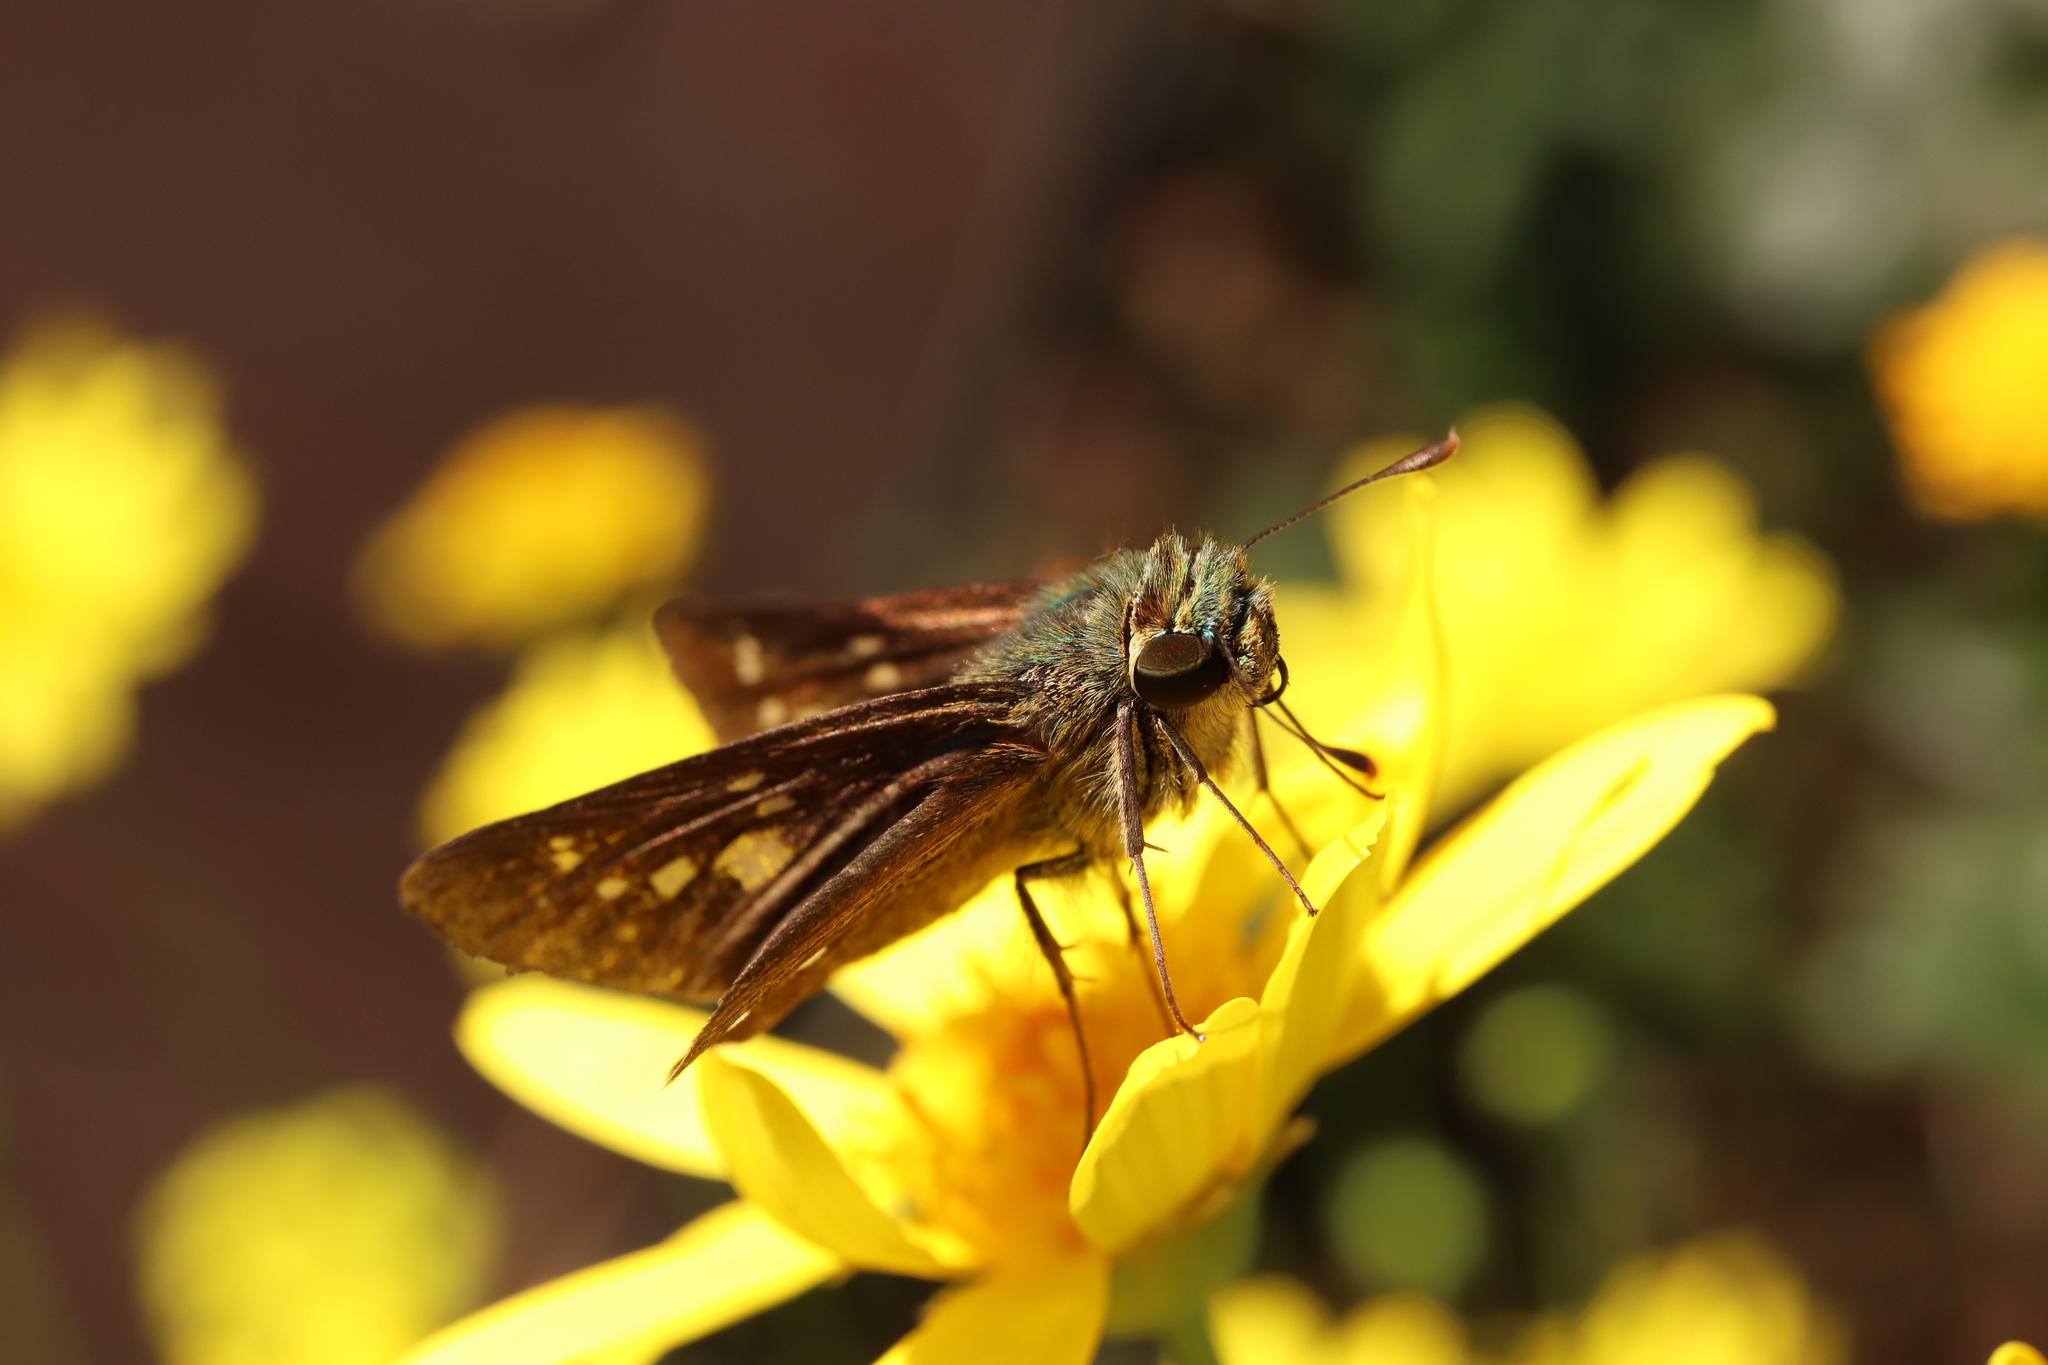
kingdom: Animalia
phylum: Arthropoda
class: Insecta
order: Lepidoptera
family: Hesperiidae
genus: Parnara
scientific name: Parnara guttatus
